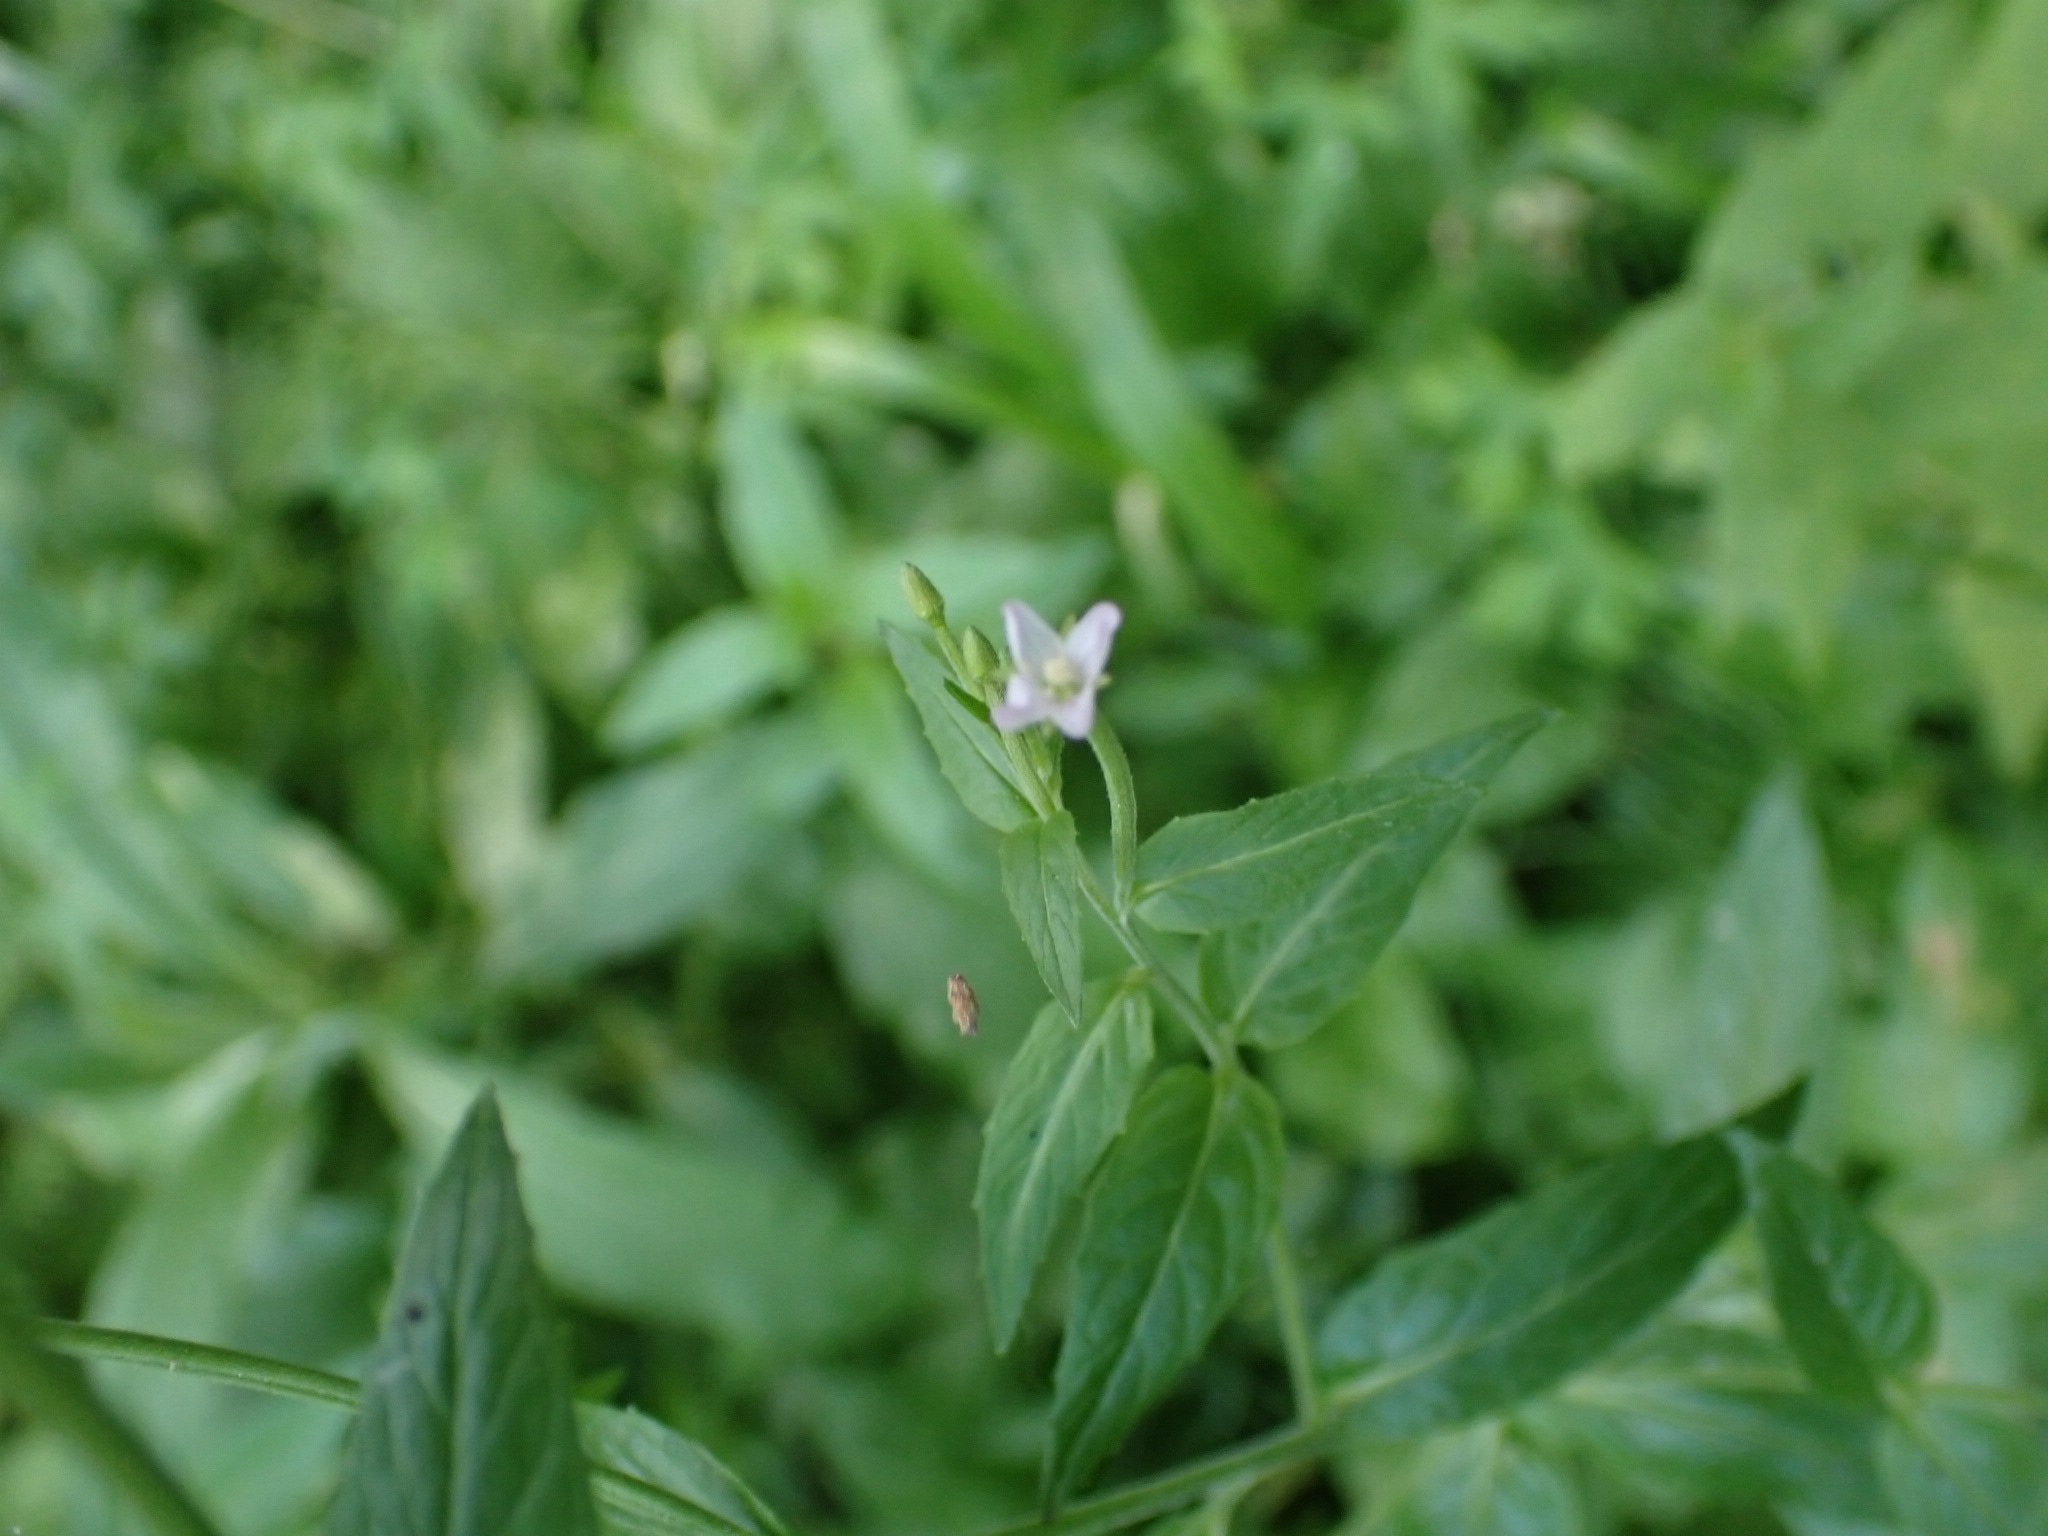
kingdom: Plantae
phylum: Tracheophyta
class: Magnoliopsida
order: Myrtales
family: Onagraceae
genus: Epilobium
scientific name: Epilobium pseudorubescens
